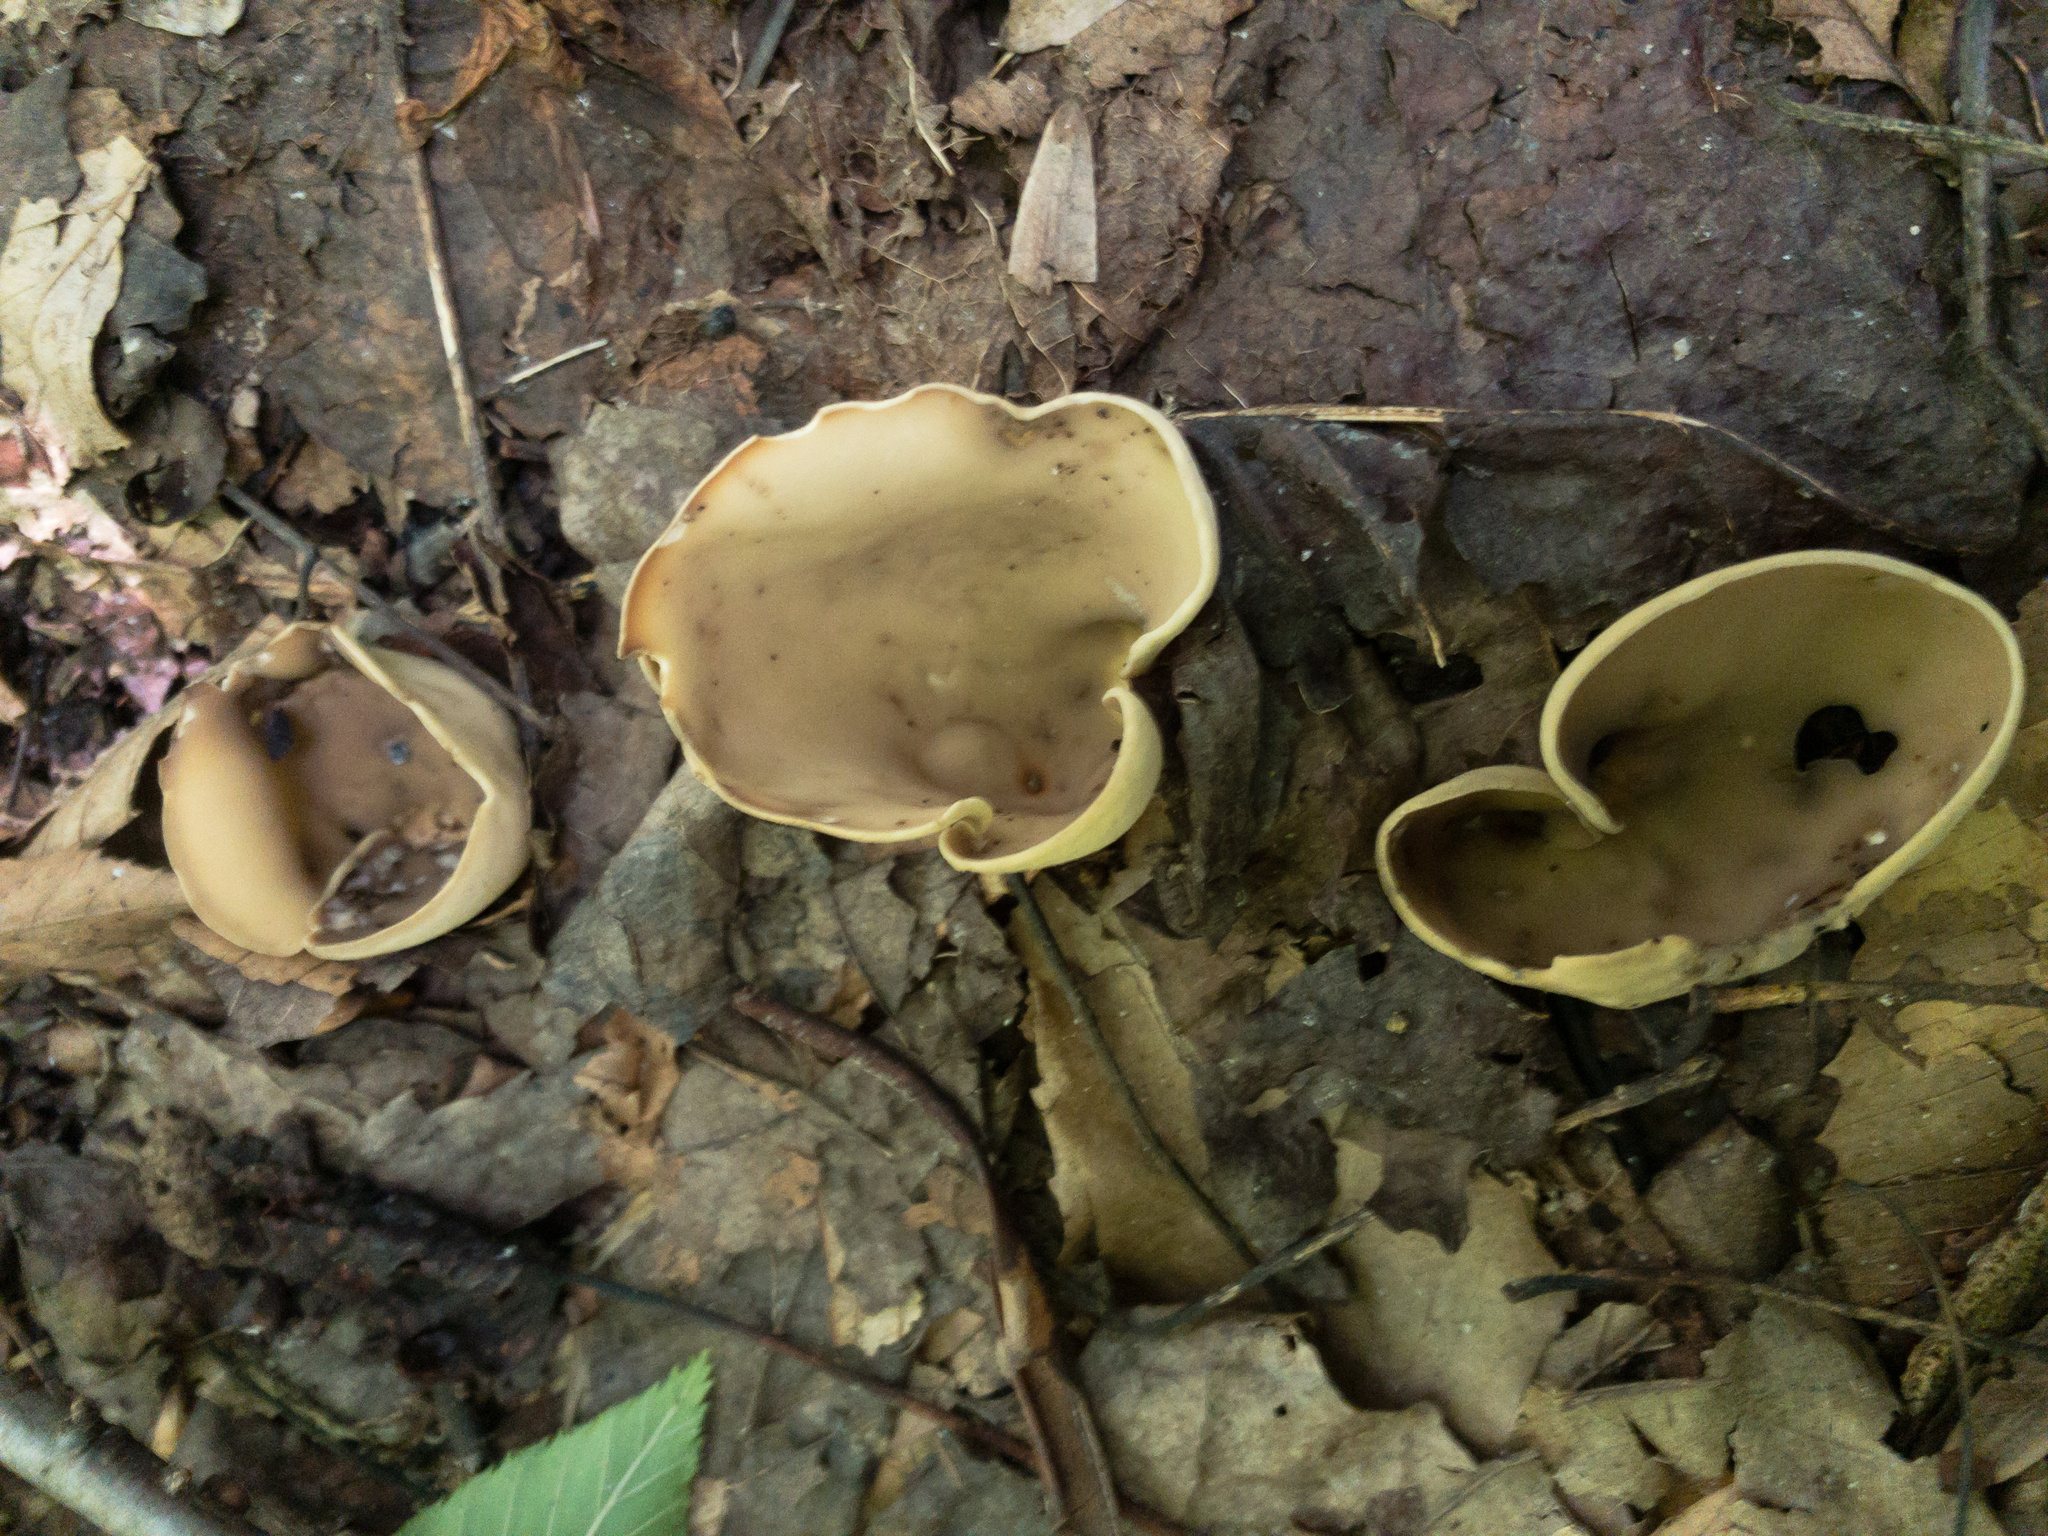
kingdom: Fungi
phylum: Ascomycota
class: Pezizomycetes
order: Pezizales
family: Otideaceae
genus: Otidea
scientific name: Otidea alutacea
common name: Tan ear
